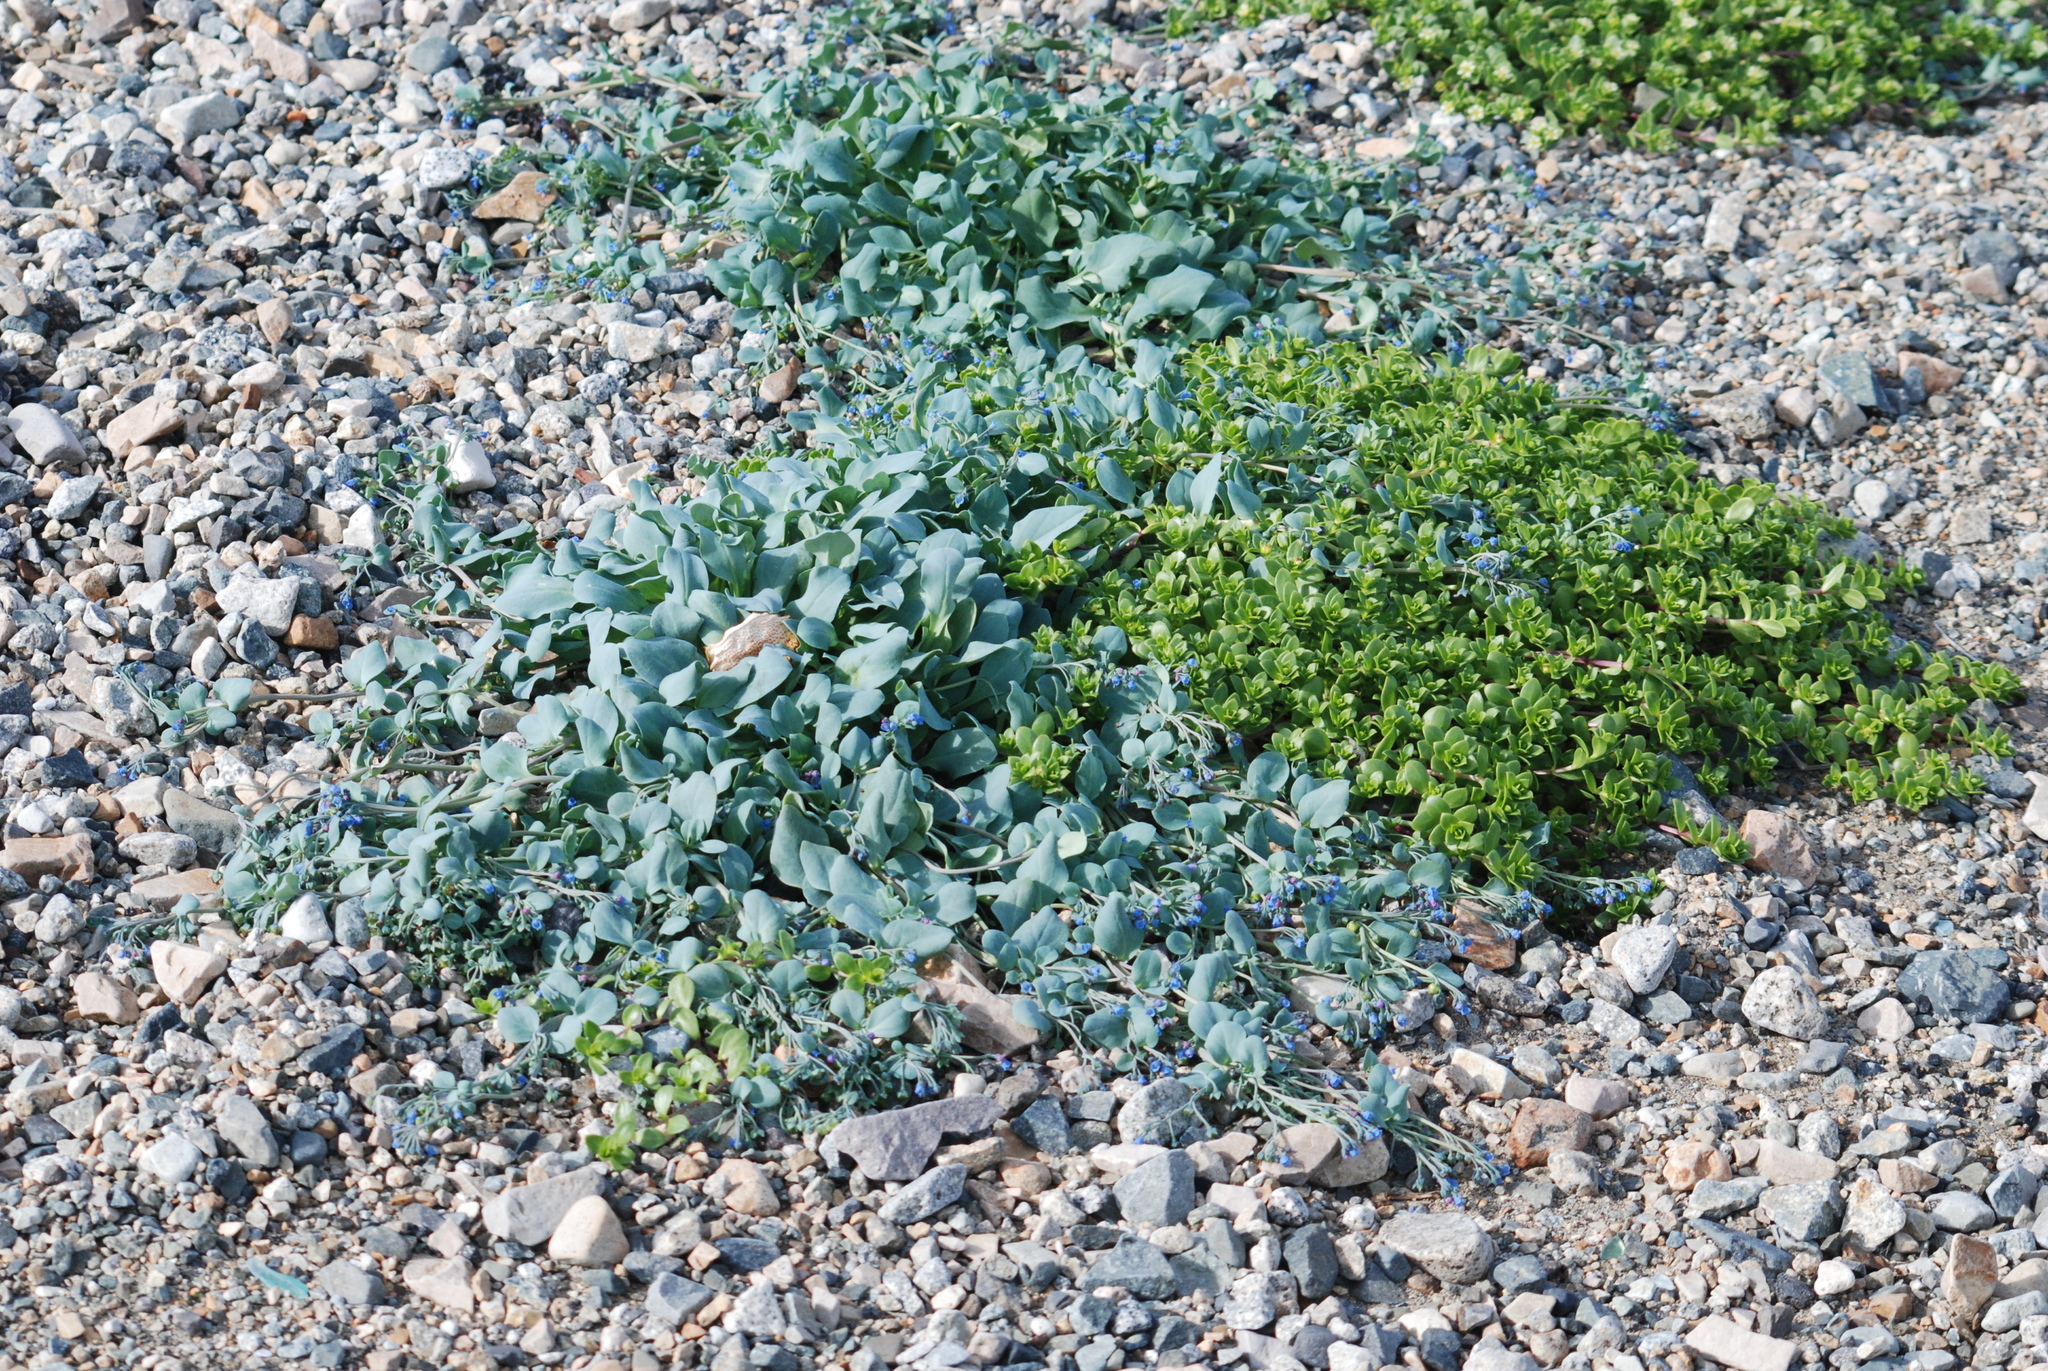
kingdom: Plantae
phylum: Tracheophyta
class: Magnoliopsida
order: Boraginales
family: Boraginaceae
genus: Mertensia
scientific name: Mertensia maritima
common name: Oysterplant
